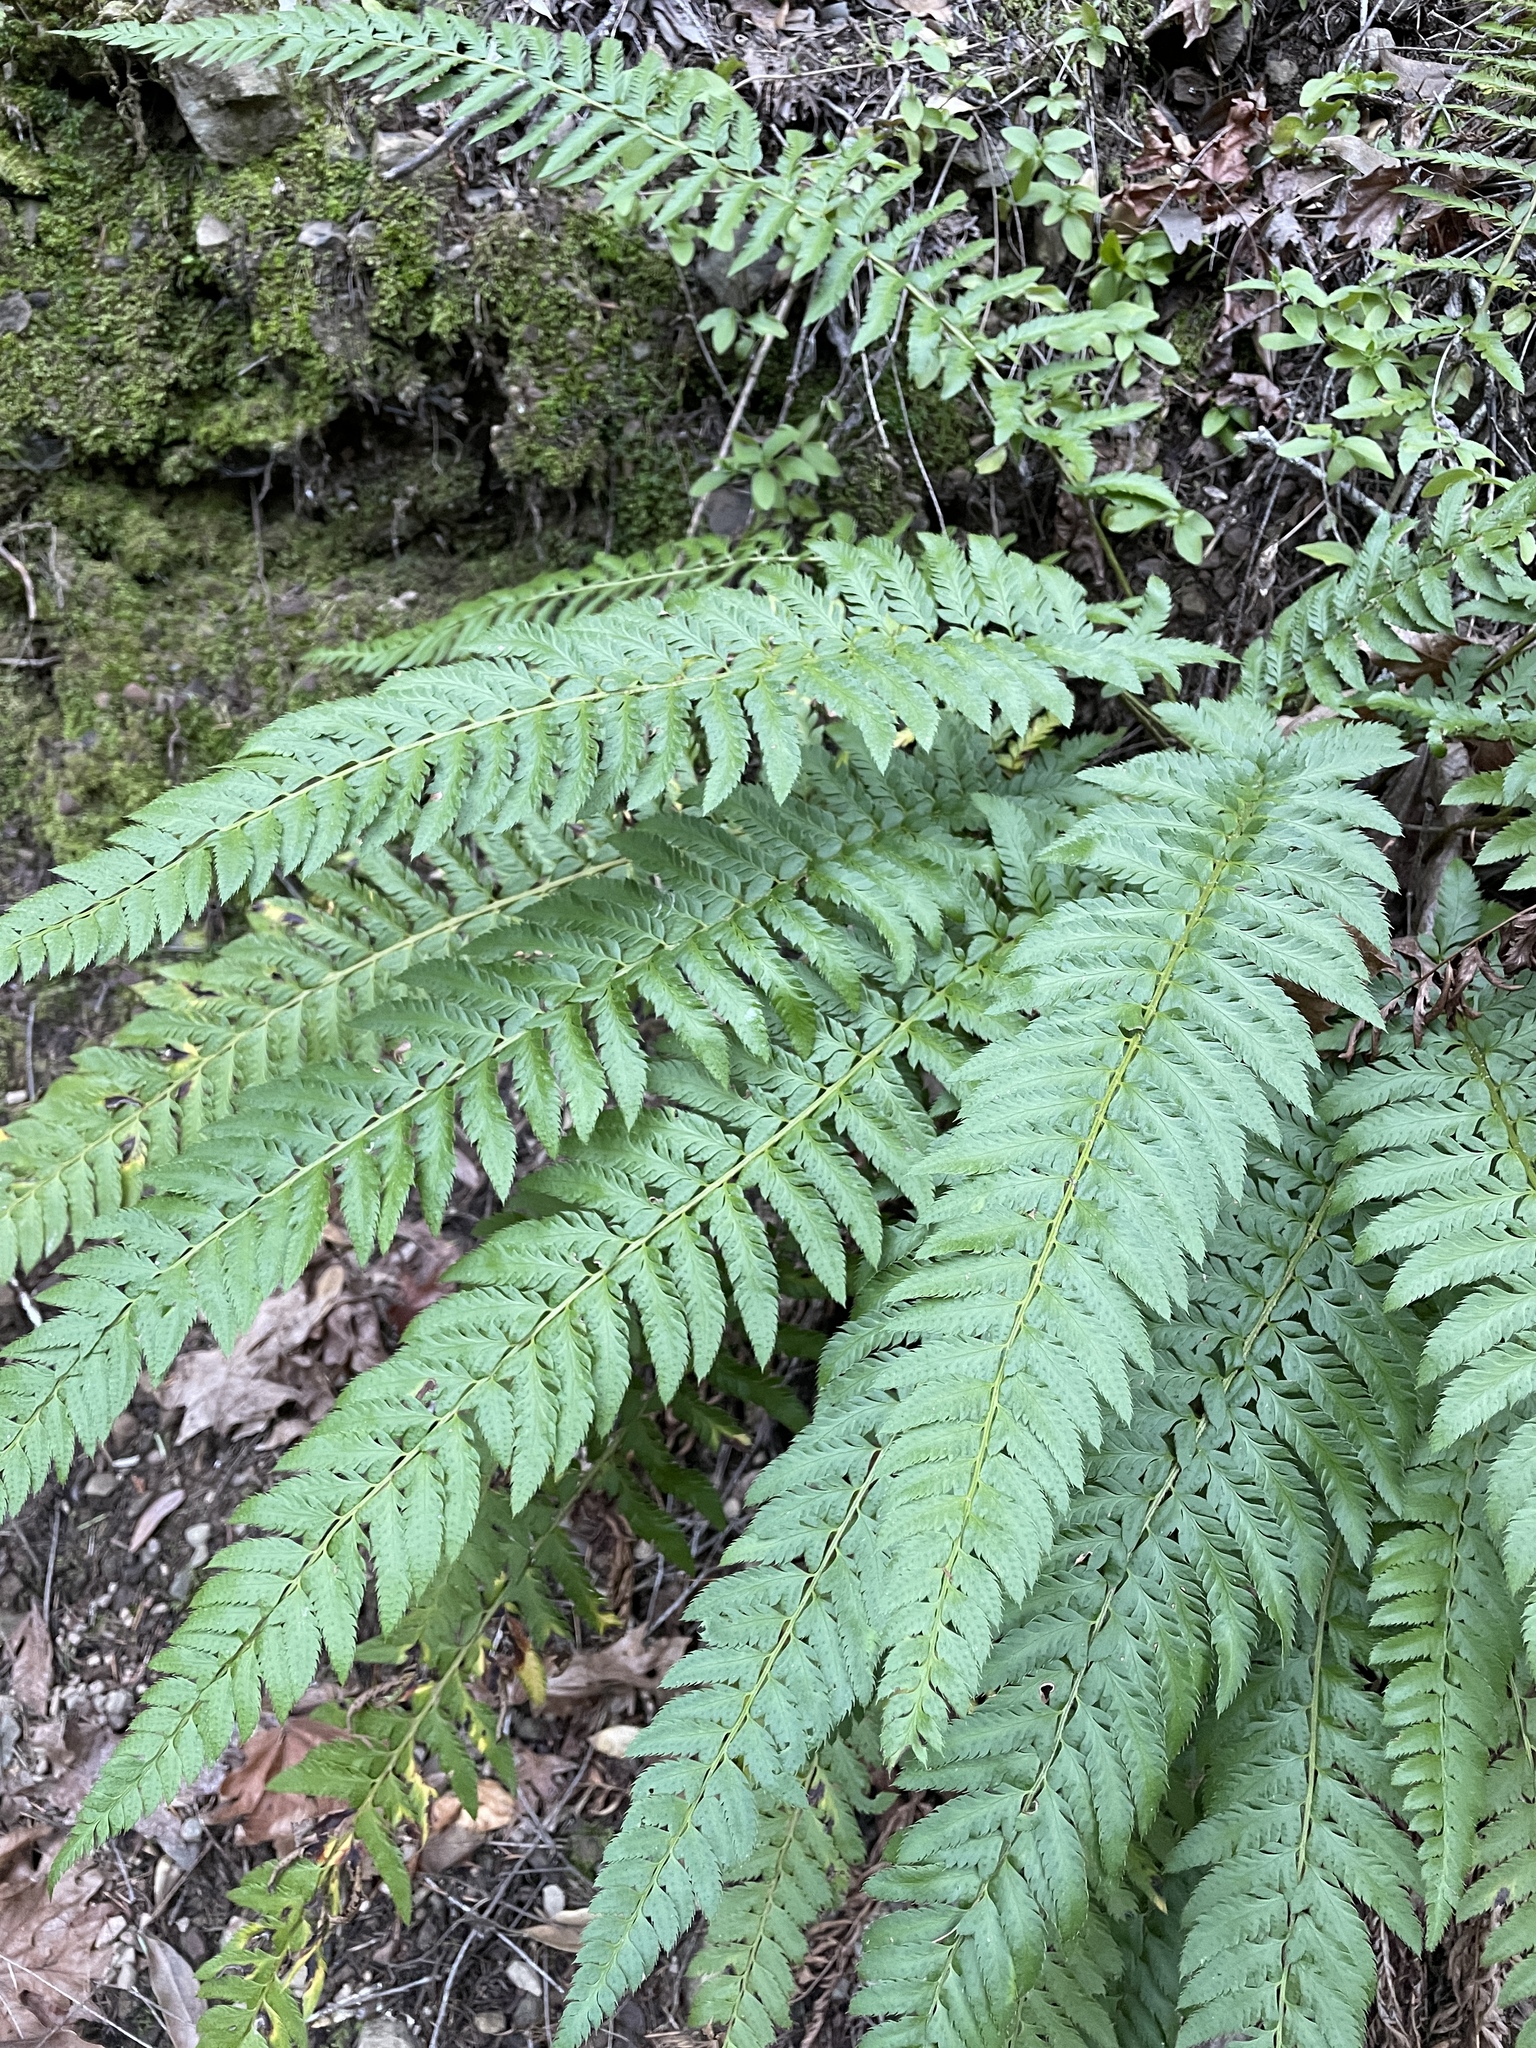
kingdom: Plantae
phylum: Tracheophyta
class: Polypodiopsida
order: Polypodiales
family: Dryopteridaceae
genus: Polystichum
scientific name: Polystichum californicum
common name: California sword fern
